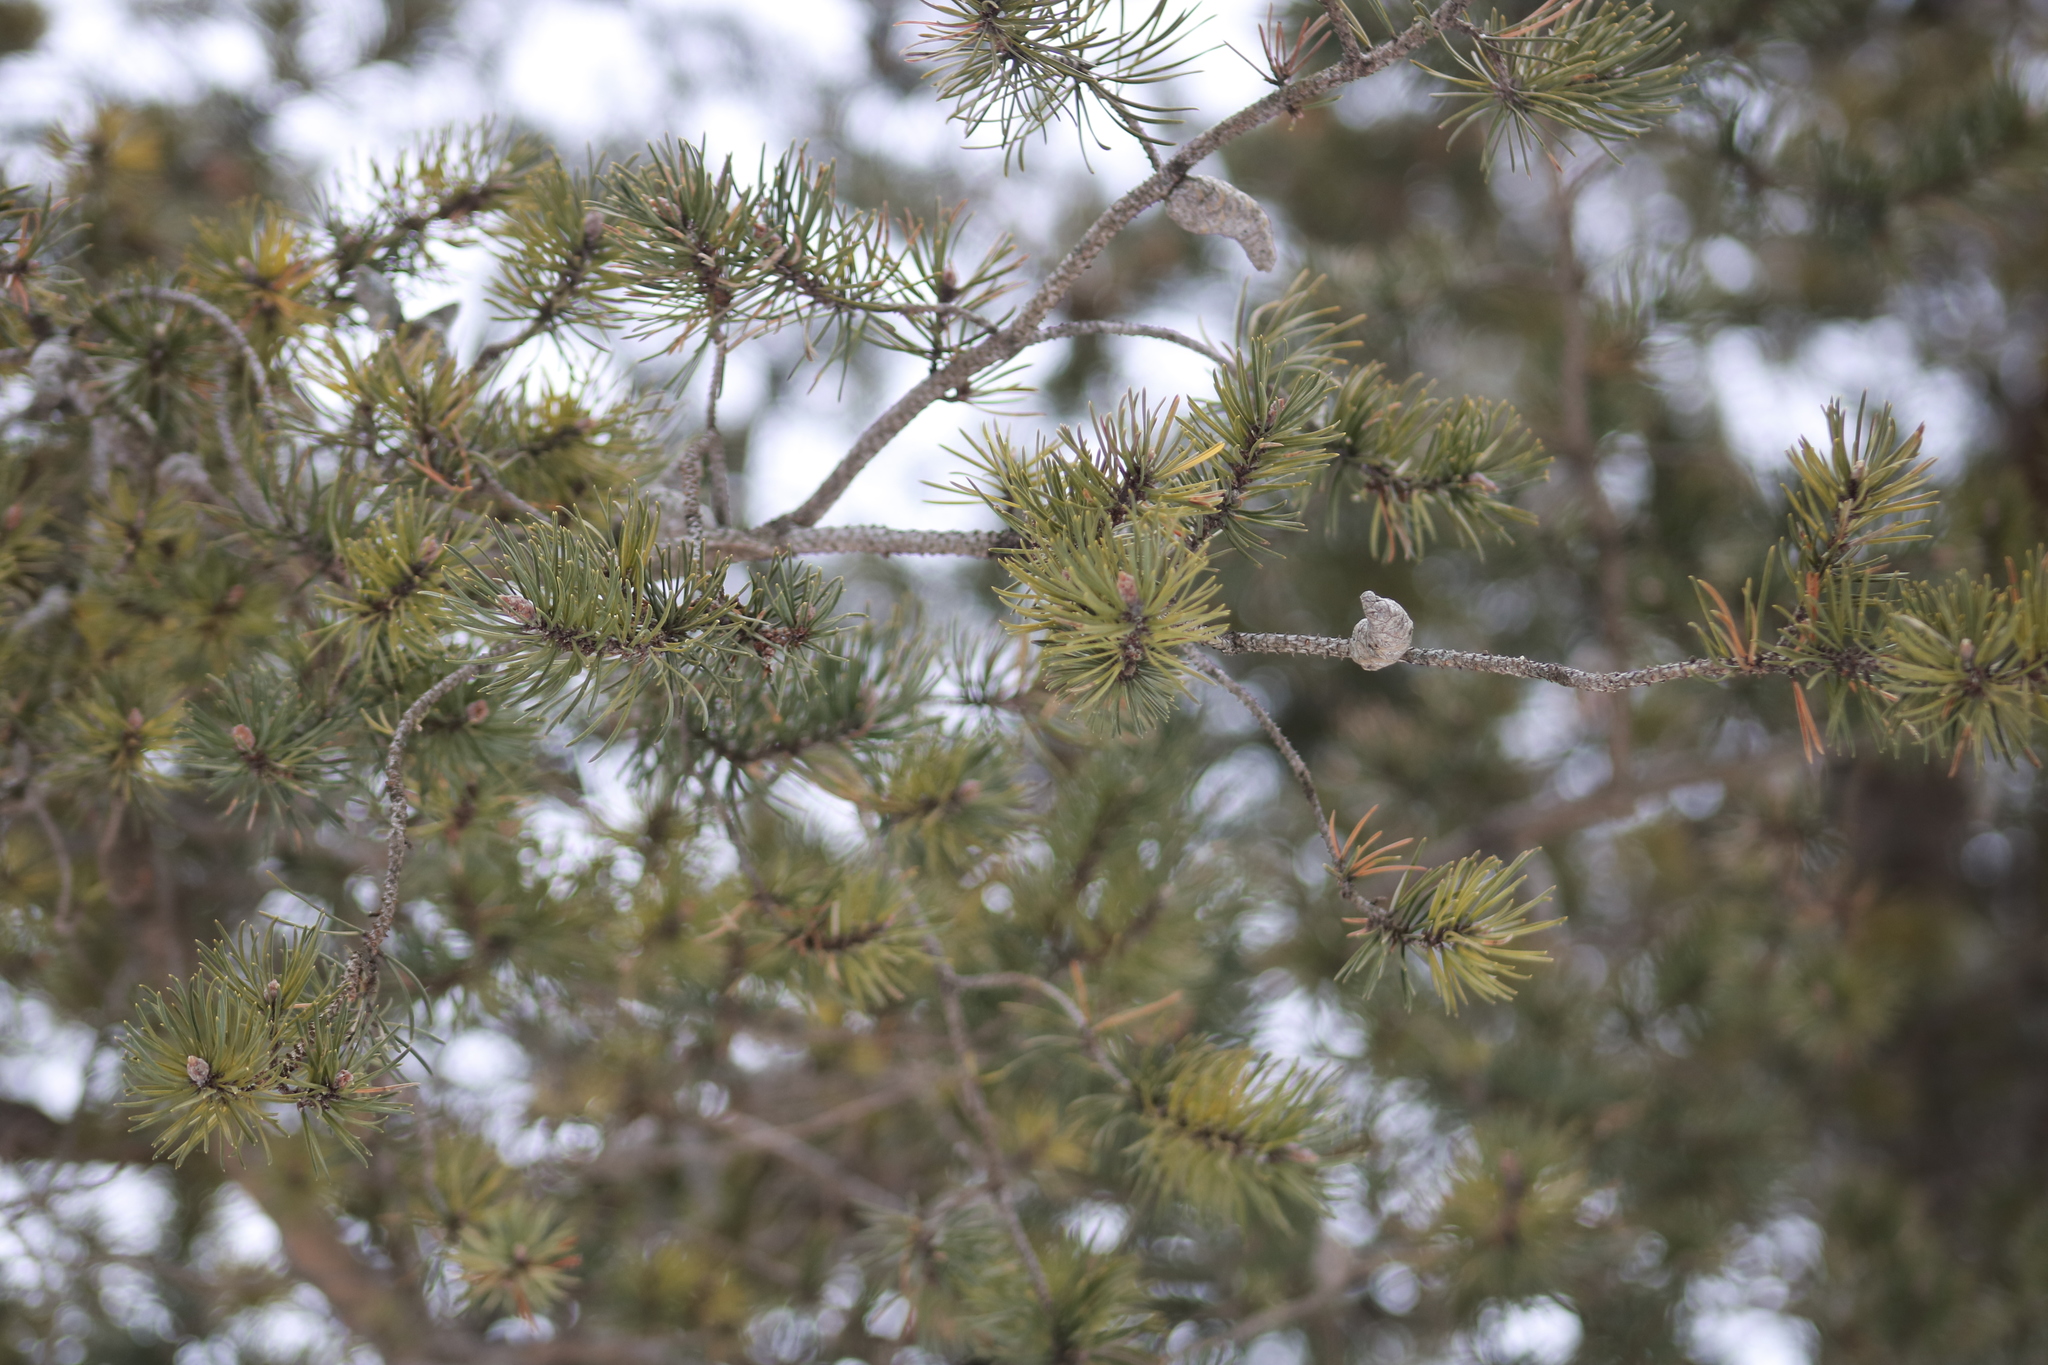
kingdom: Plantae
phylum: Tracheophyta
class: Pinopsida
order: Pinales
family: Pinaceae
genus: Pinus
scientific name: Pinus banksiana
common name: Jack pine
